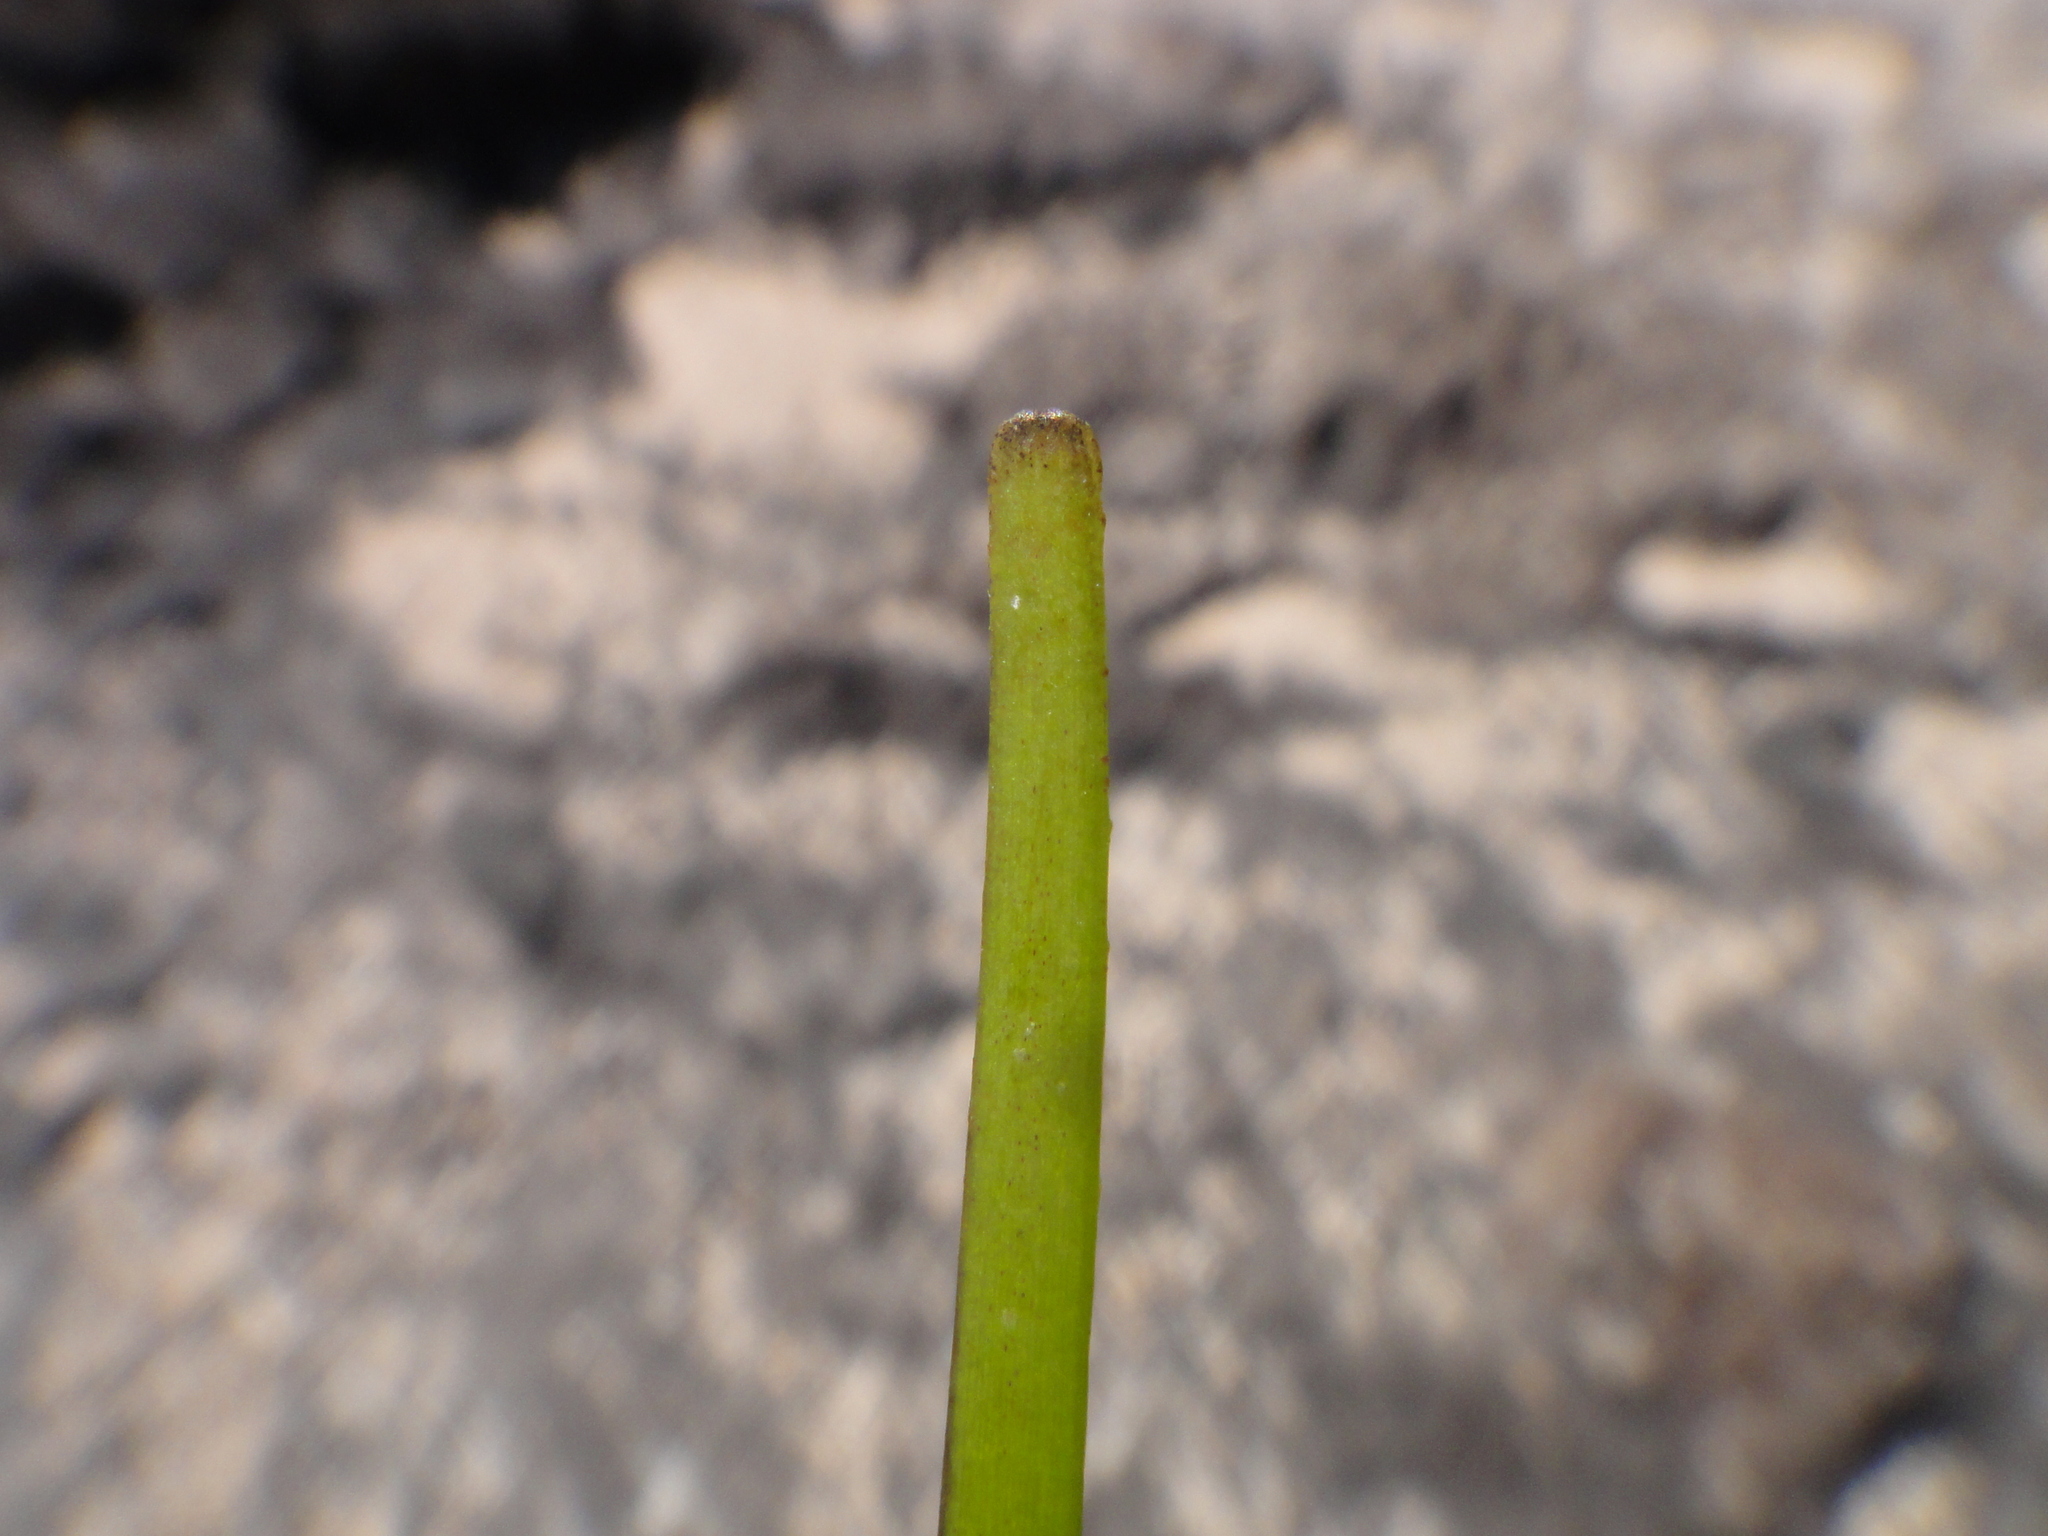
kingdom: Plantae
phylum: Tracheophyta
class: Liliopsida
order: Alismatales
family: Cymodoceaceae
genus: Cymodocea
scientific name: Cymodocea nodosa
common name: Slender seagrass
